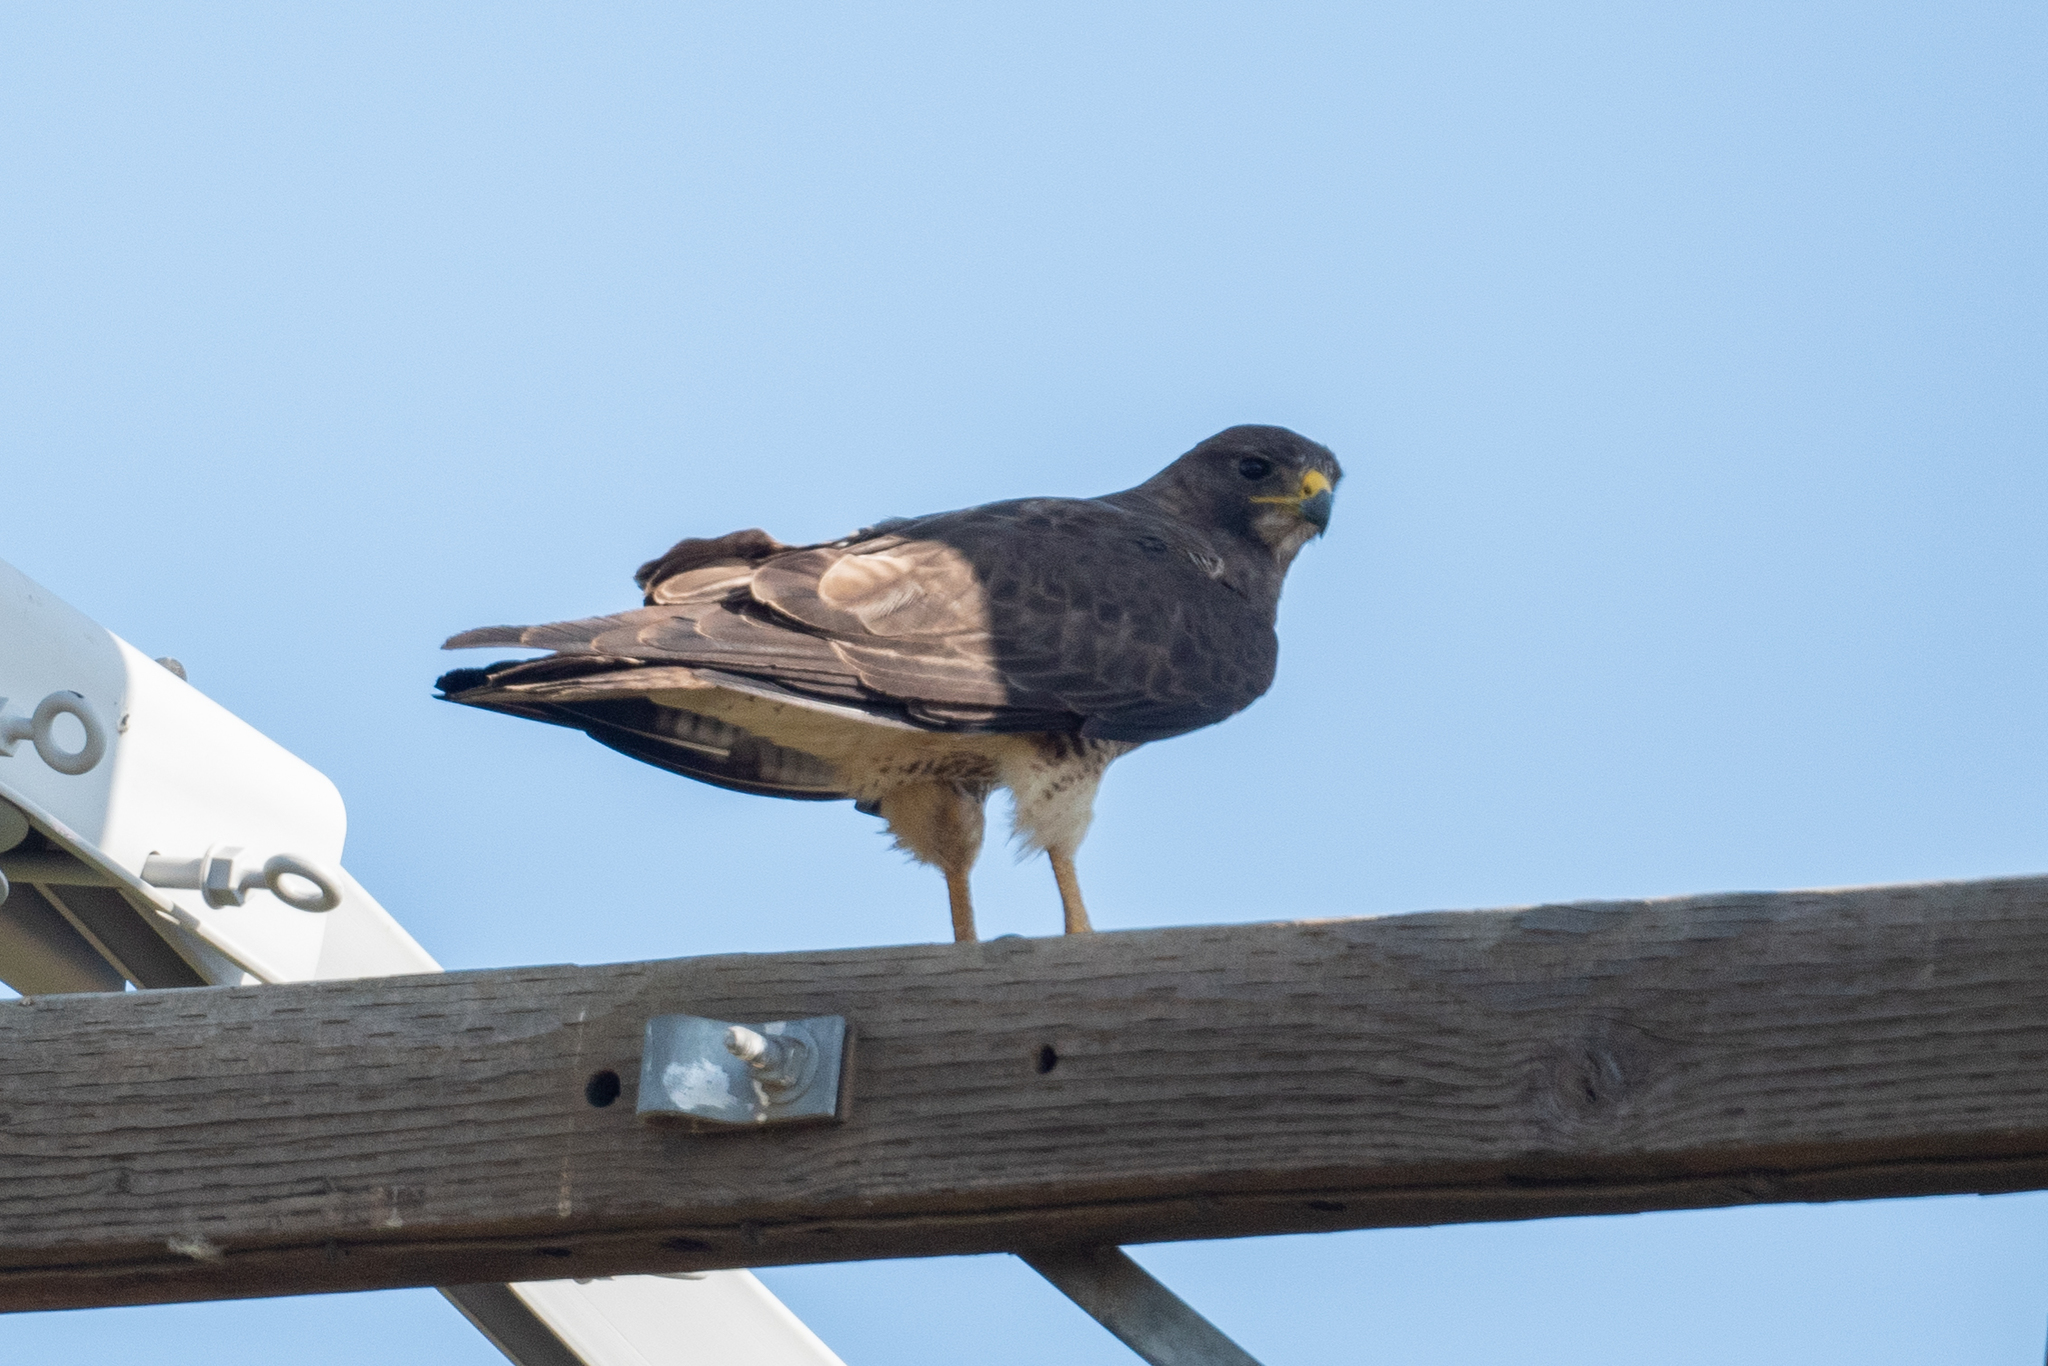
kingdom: Animalia
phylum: Chordata
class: Aves
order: Accipitriformes
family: Accipitridae
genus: Buteo
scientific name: Buteo swainsoni
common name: Swainson's hawk
